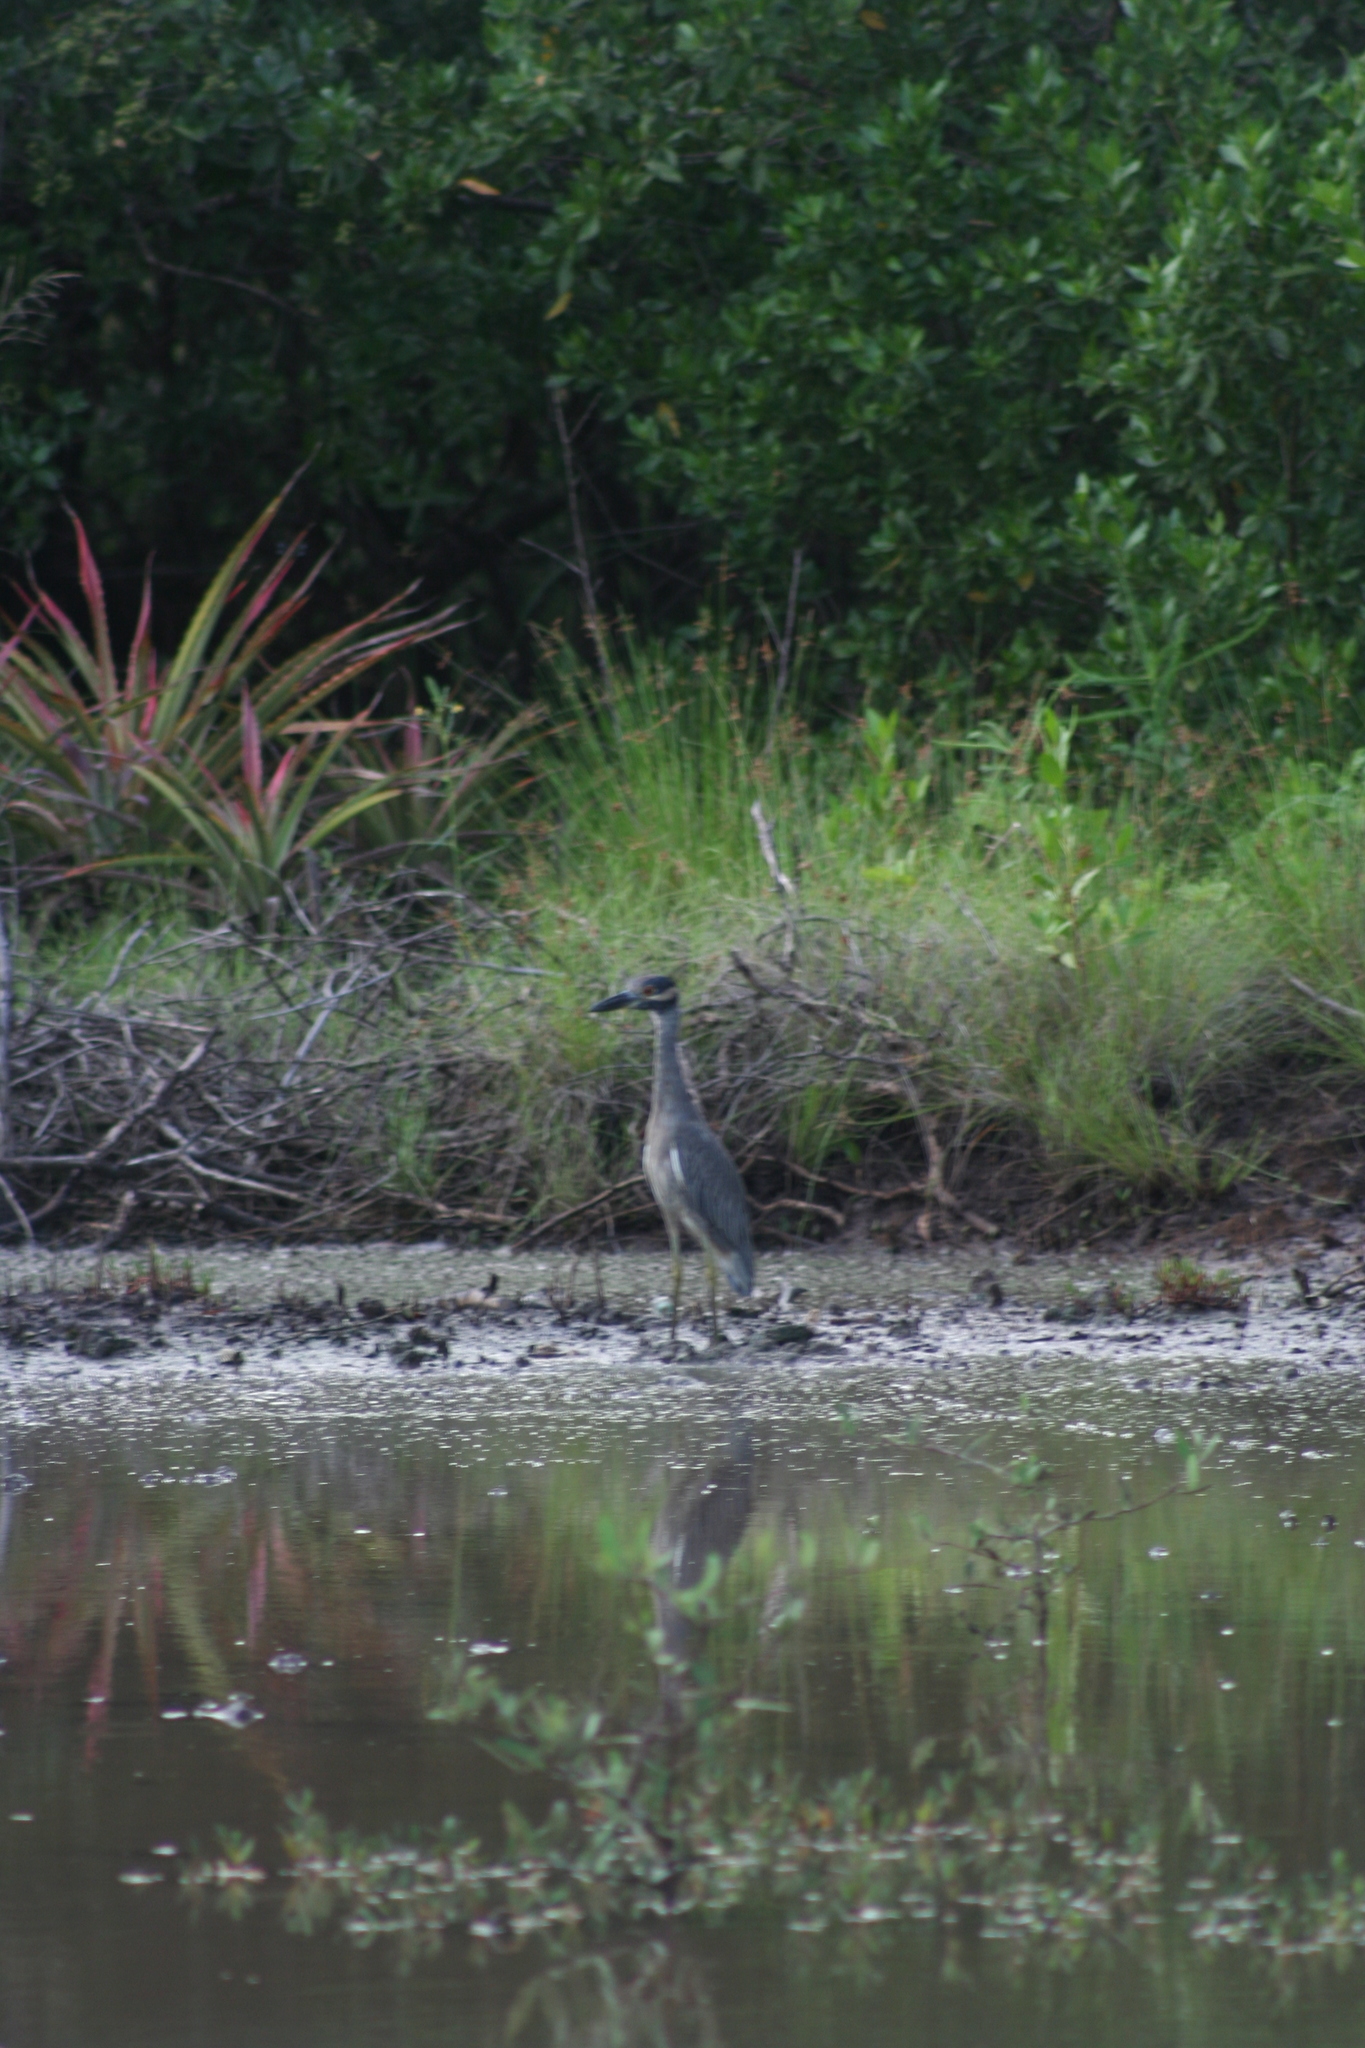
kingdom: Animalia
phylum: Chordata
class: Aves
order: Pelecaniformes
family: Ardeidae
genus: Nyctanassa
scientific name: Nyctanassa violacea
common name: Yellow-crowned night heron
